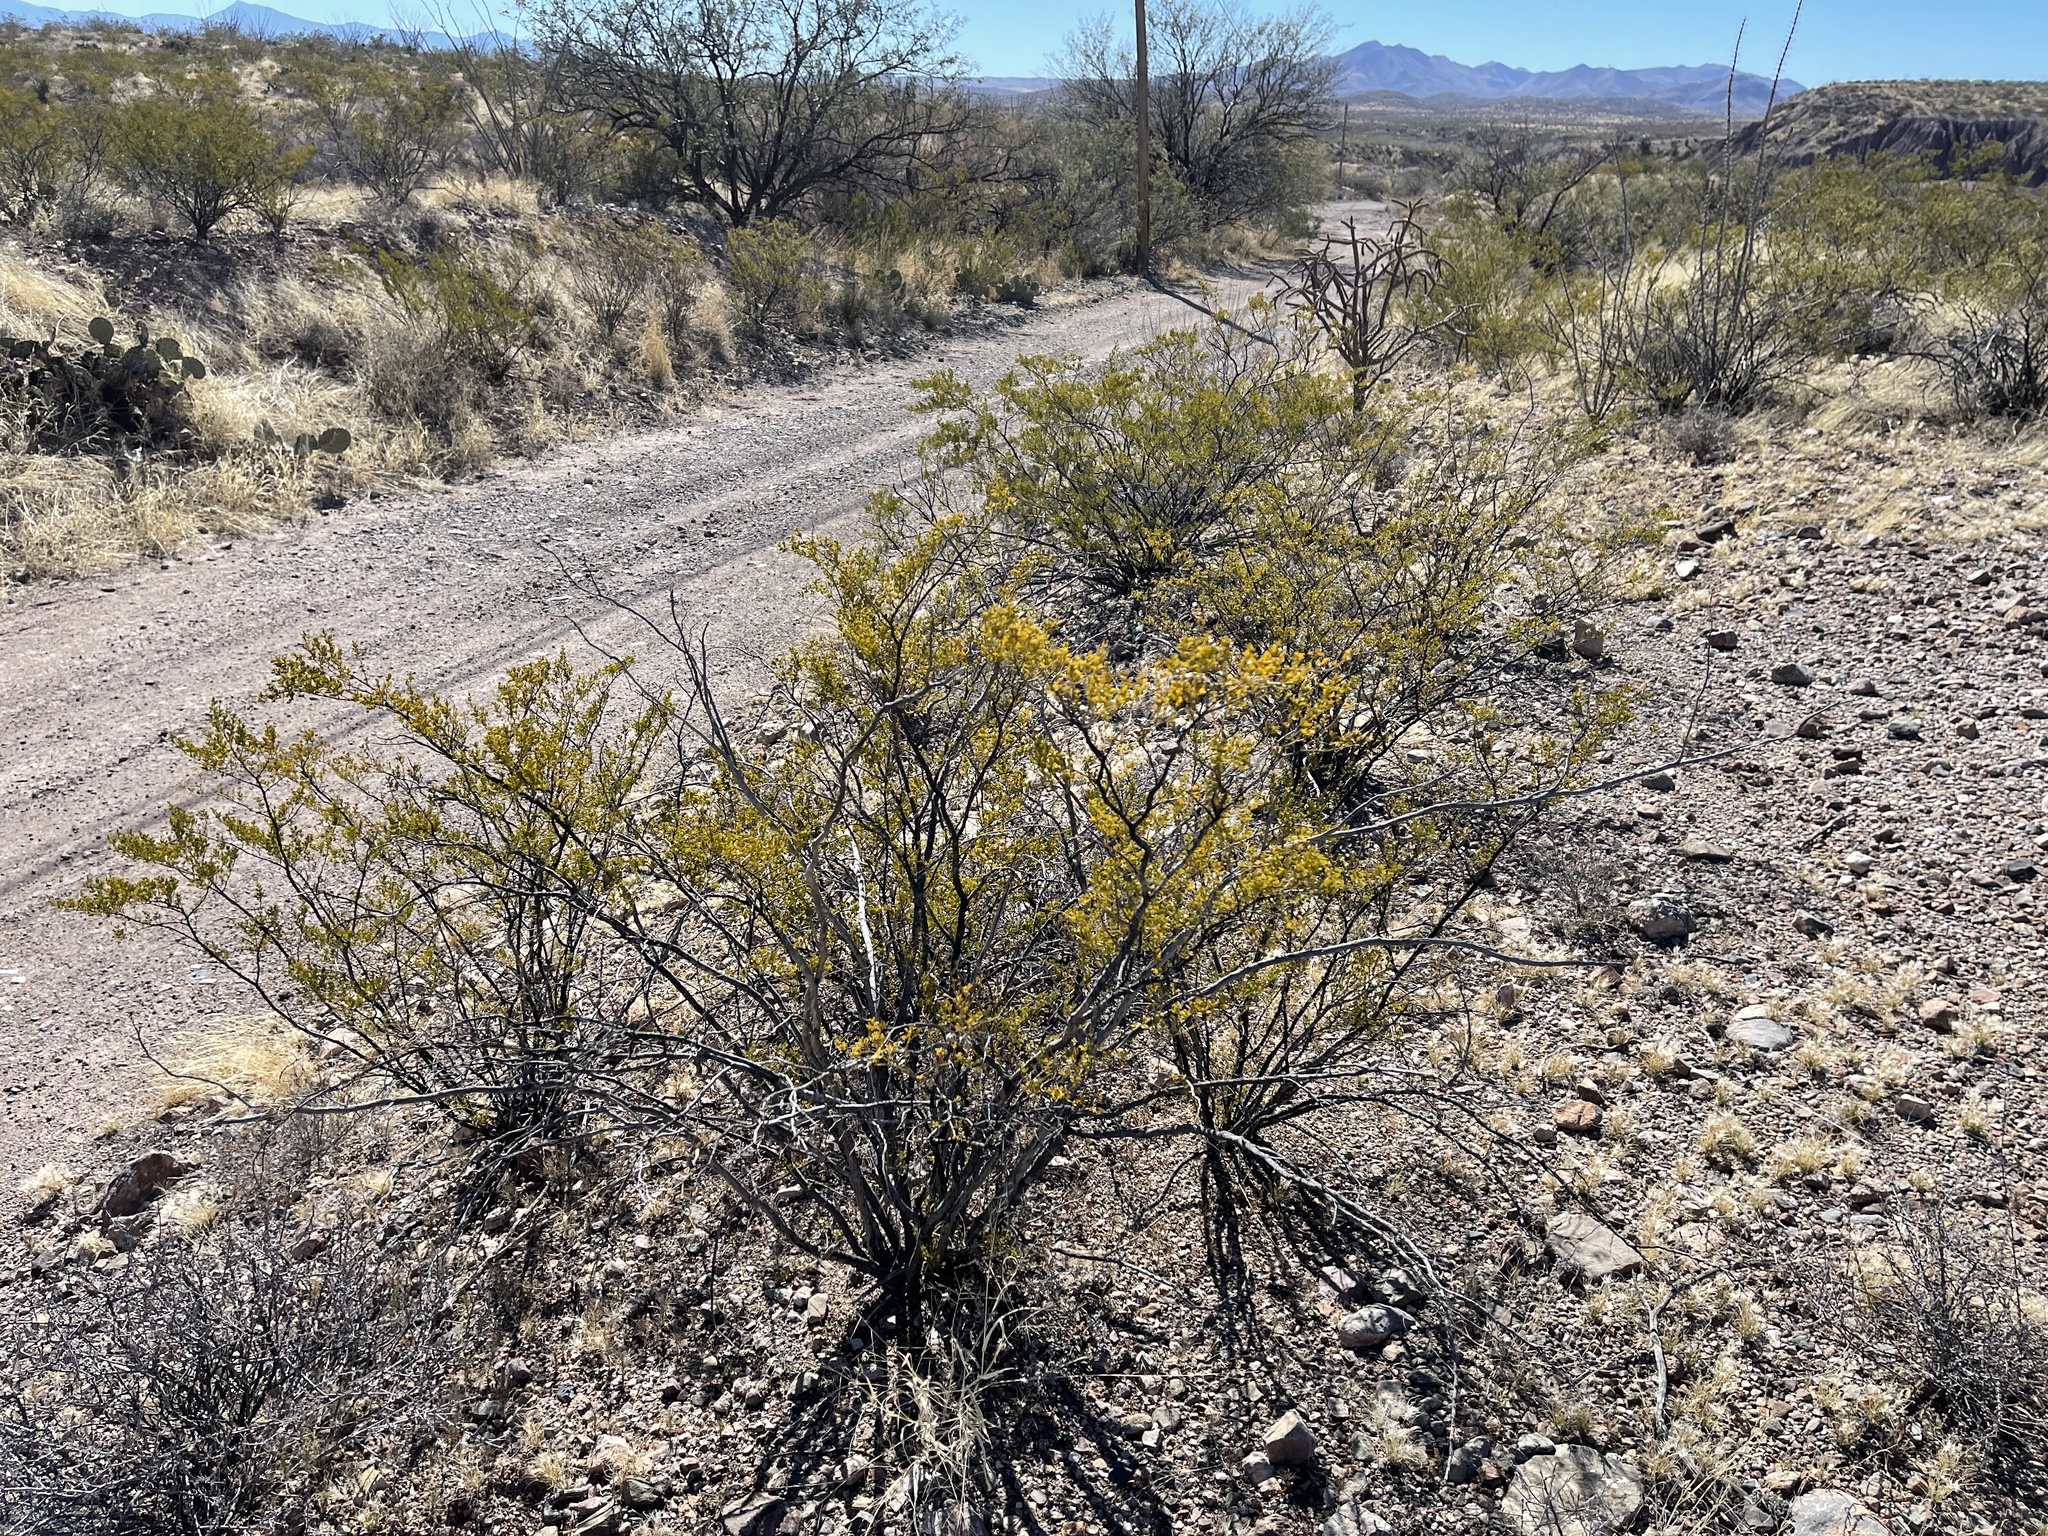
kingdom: Plantae
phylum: Tracheophyta
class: Magnoliopsida
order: Zygophyllales
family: Zygophyllaceae
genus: Larrea
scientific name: Larrea tridentata
